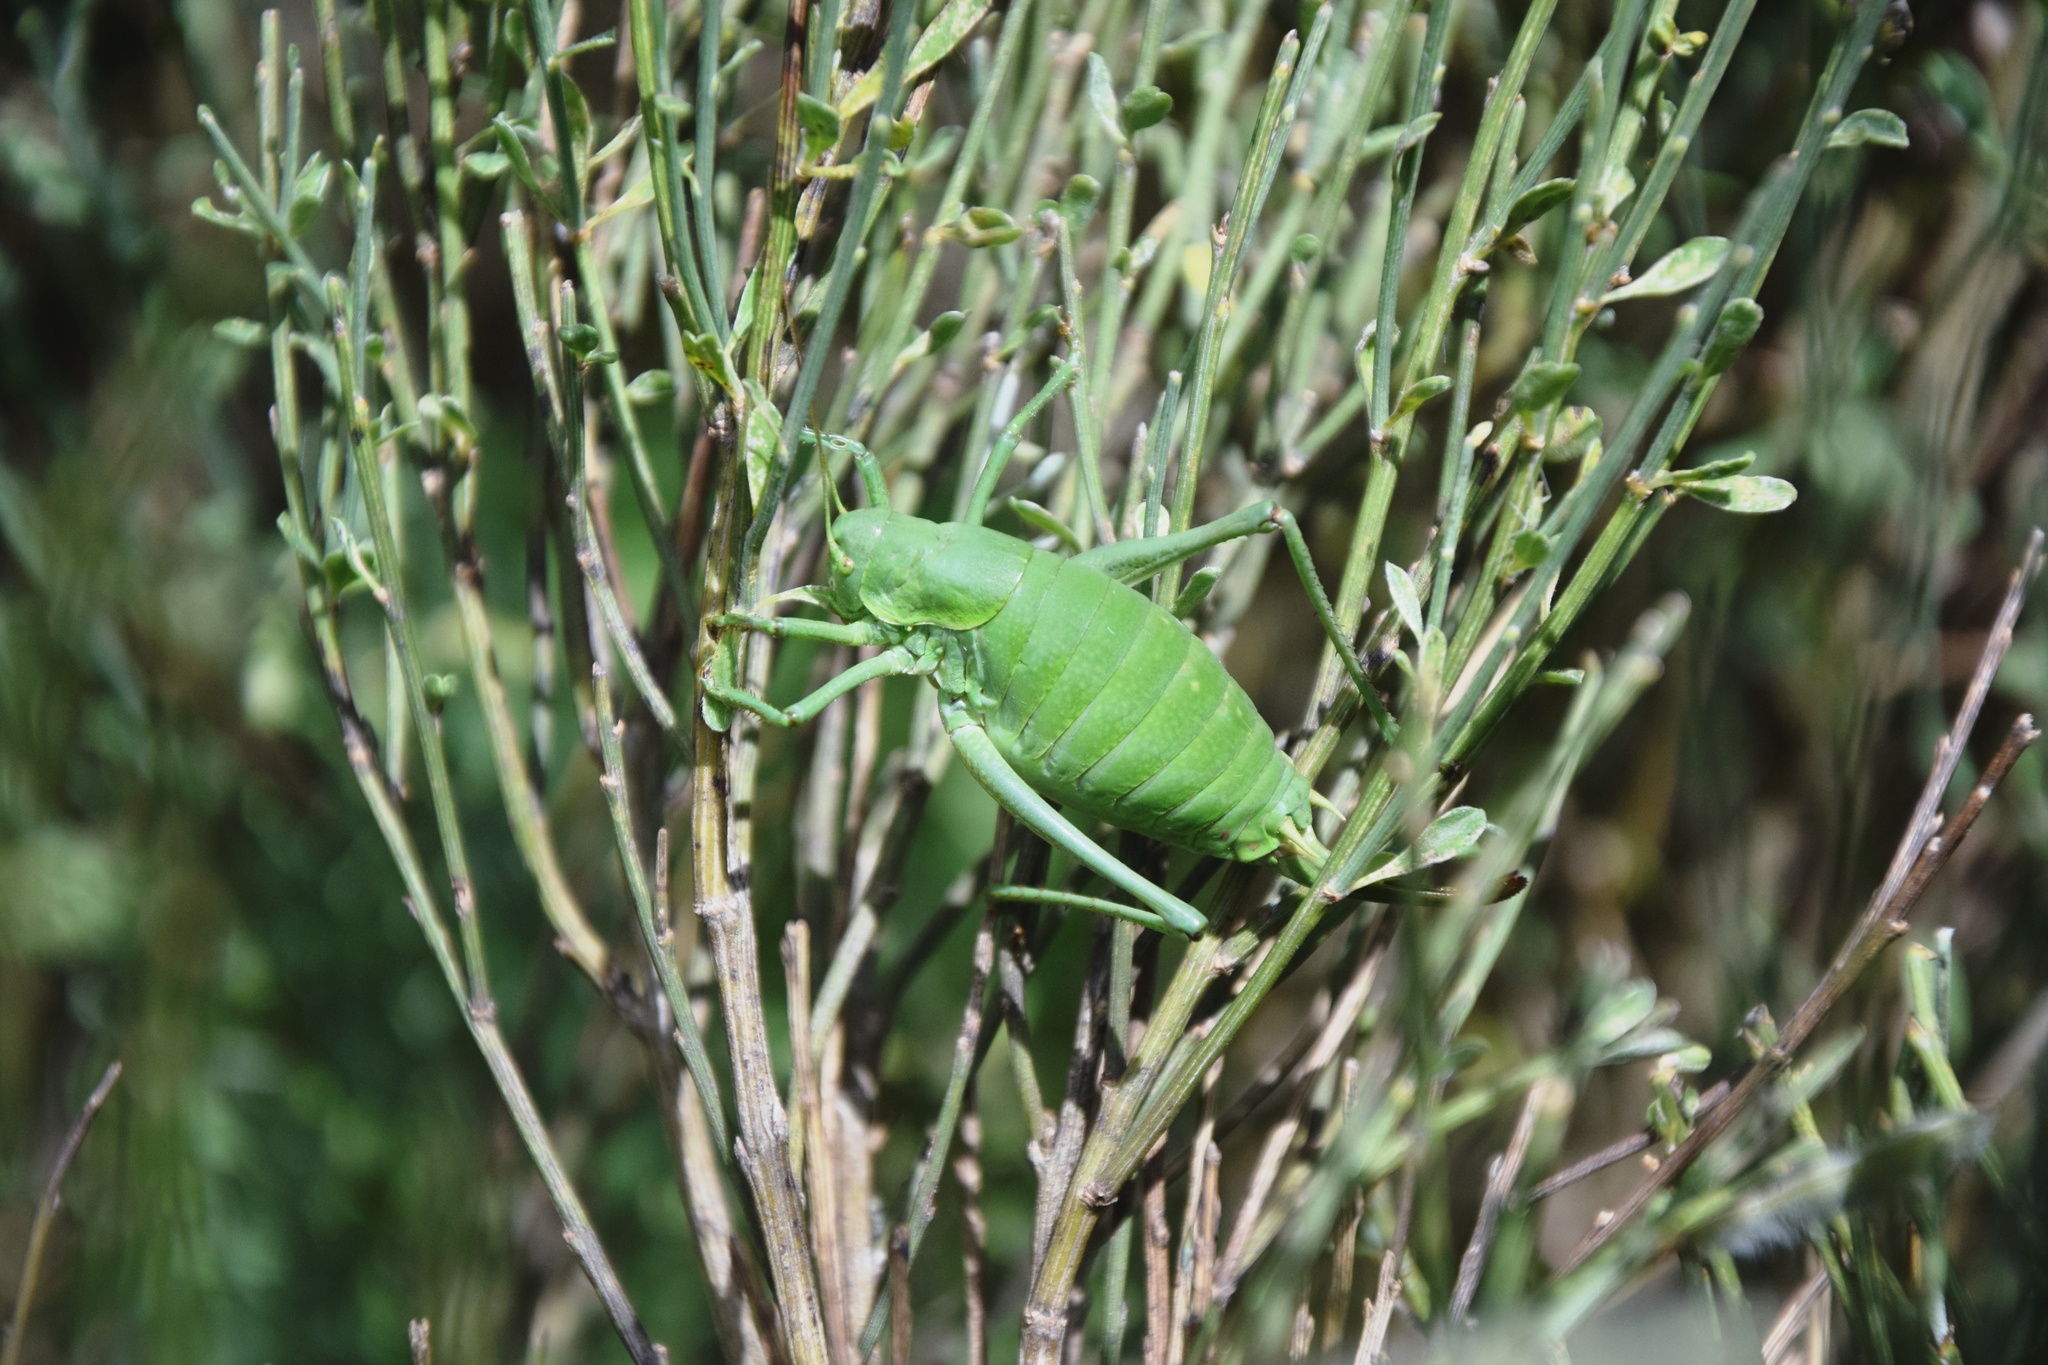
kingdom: Animalia
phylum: Arthropoda
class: Insecta
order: Orthoptera
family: Tettigoniidae
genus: Polysarcus
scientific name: Polysarcus denticauda
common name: Large saw-tailed bush-cricket
